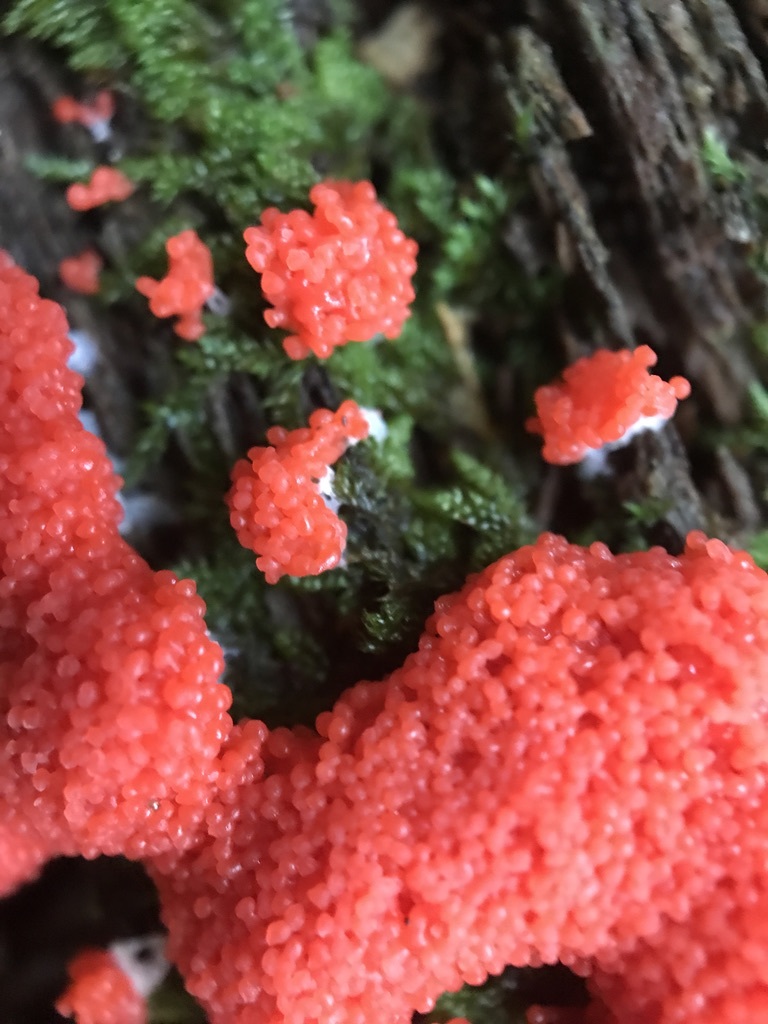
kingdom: Protozoa
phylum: Mycetozoa
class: Myxomycetes
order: Cribrariales
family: Tubiferaceae
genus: Tubifera
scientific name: Tubifera ferruginosa
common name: Red raspberry slime mold
